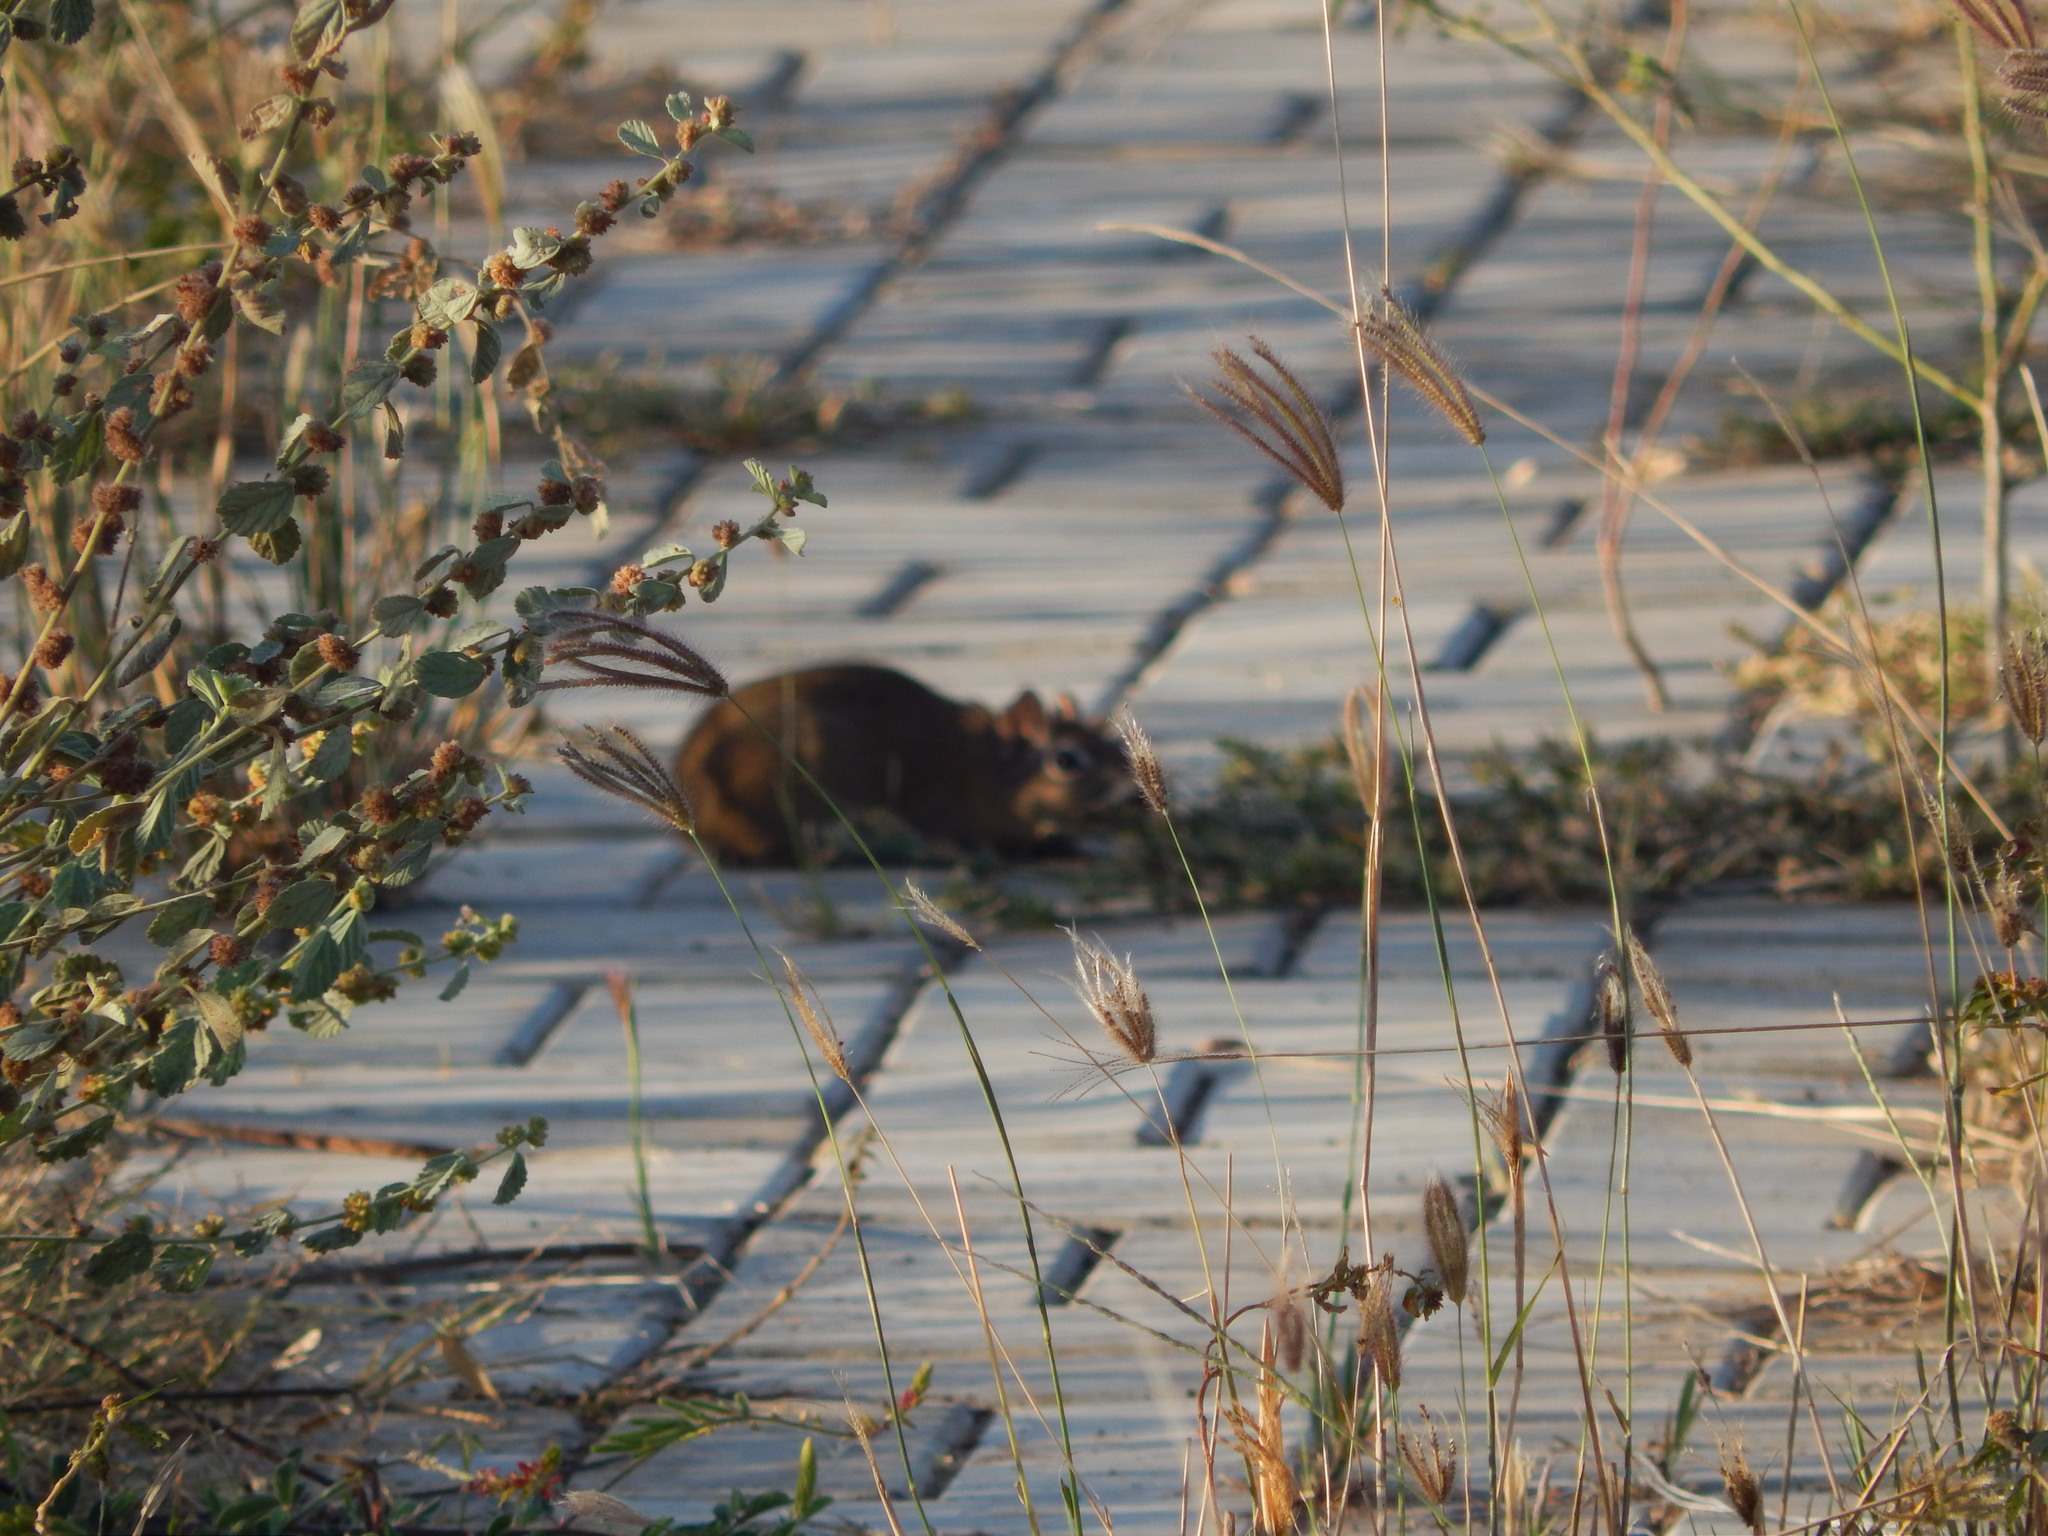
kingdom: Animalia
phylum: Chordata
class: Mammalia
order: Rodentia
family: Caviidae
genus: Galea
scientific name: Galea spixii
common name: Spix's yellow-toothed cavy
